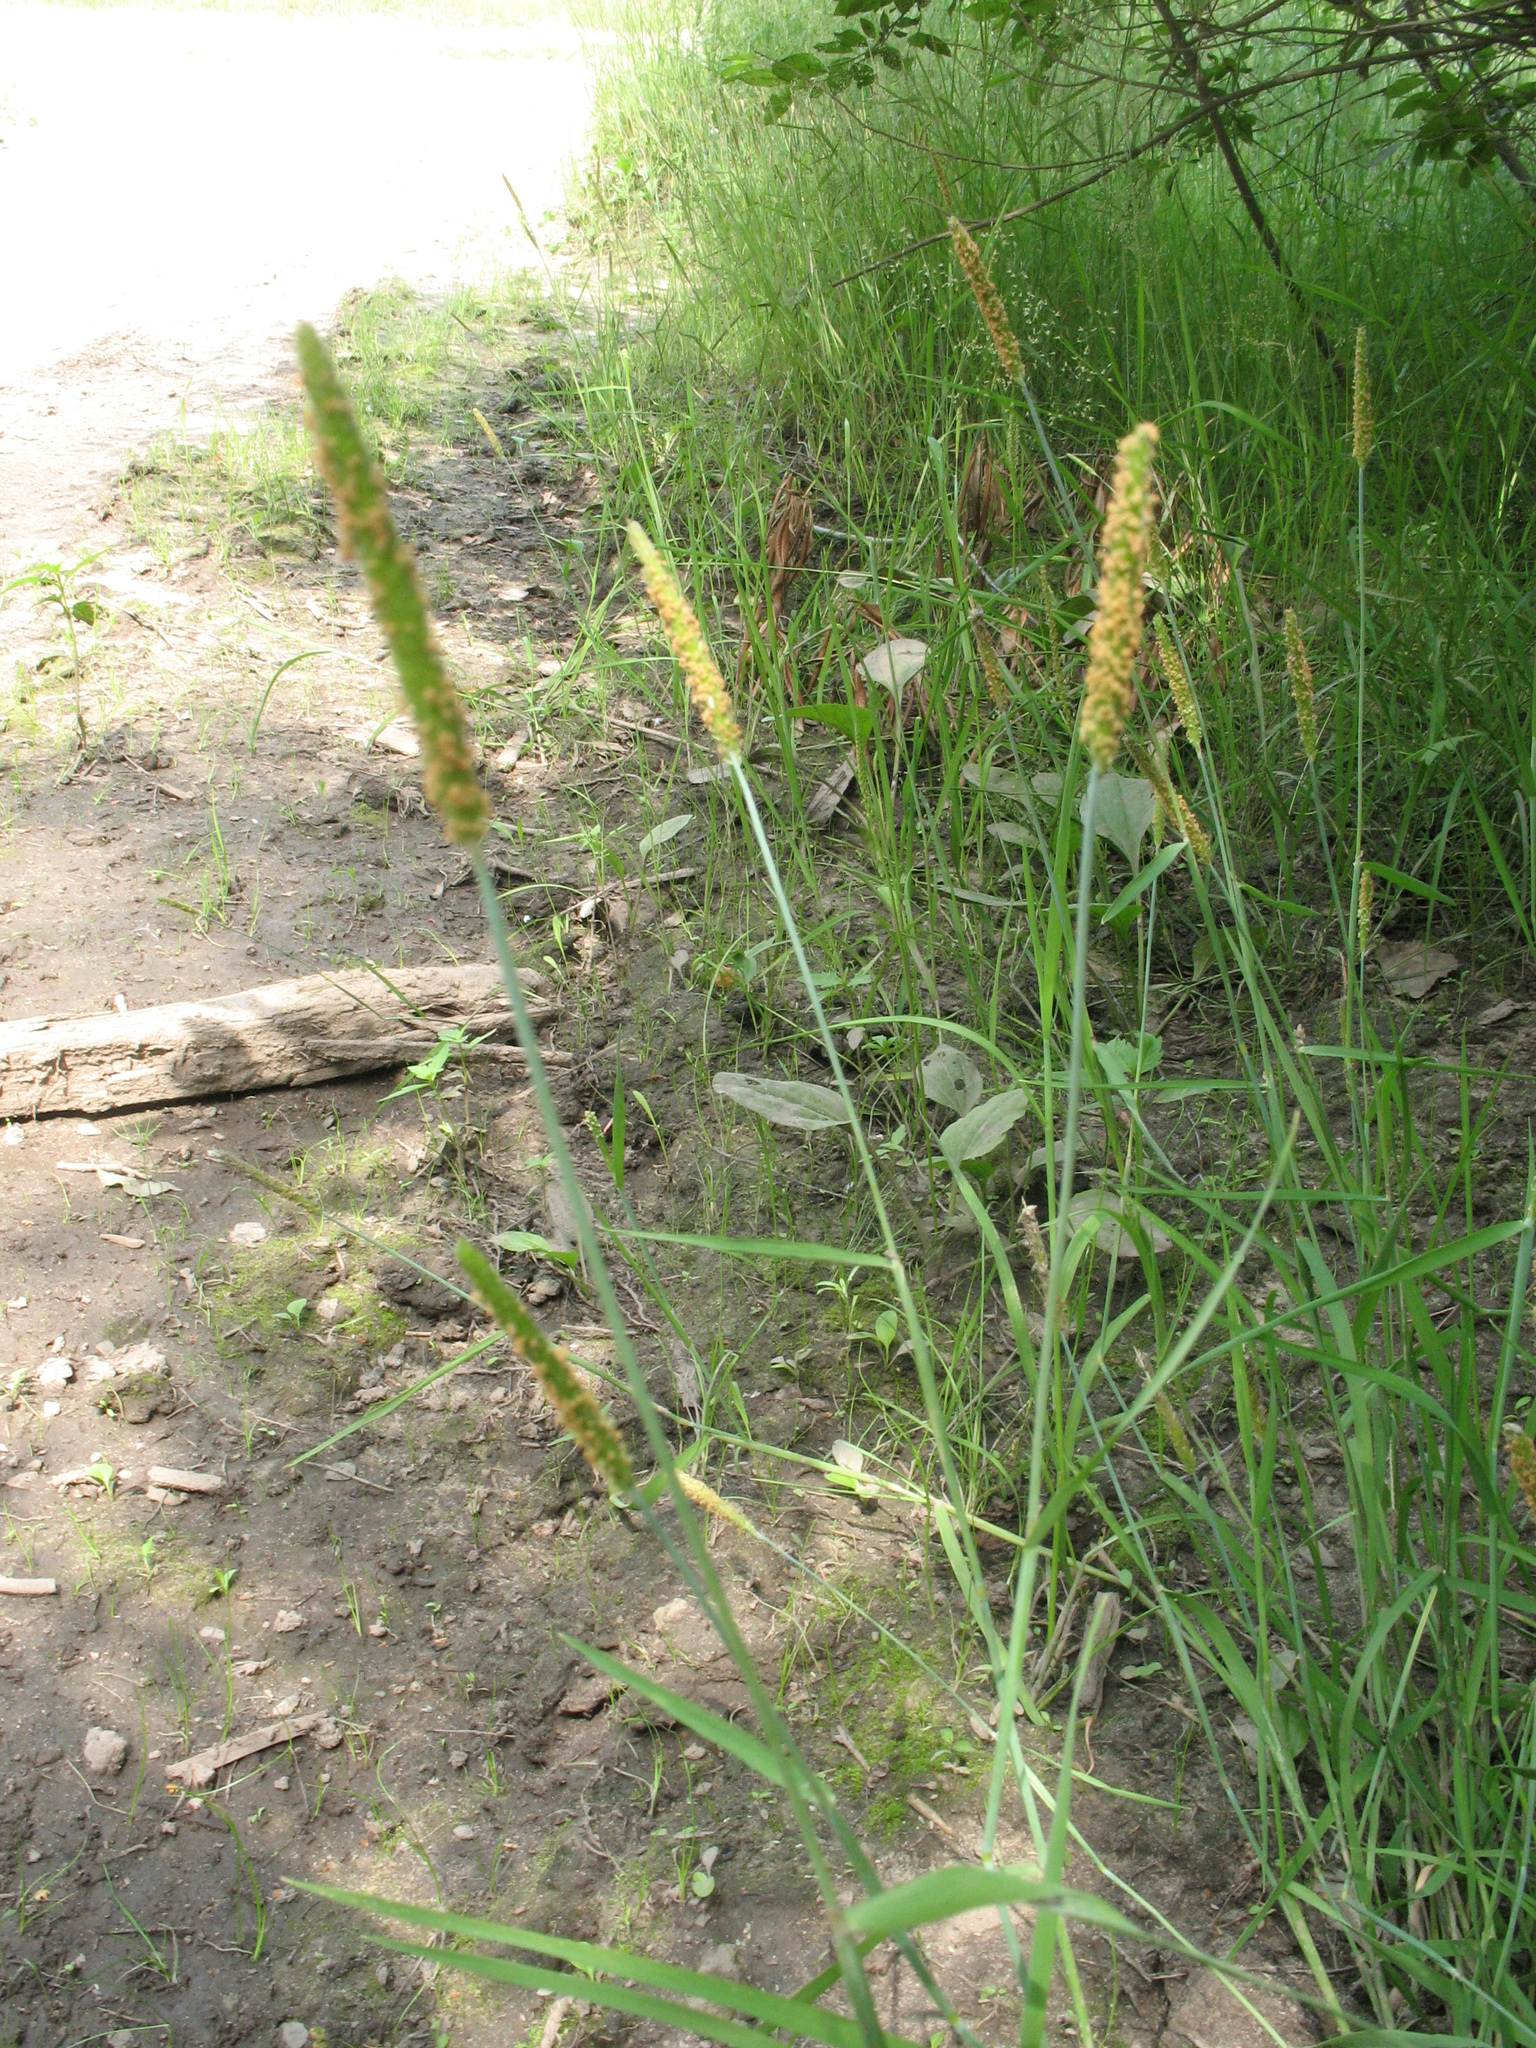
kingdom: Plantae
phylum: Tracheophyta
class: Liliopsida
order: Poales
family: Poaceae
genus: Alopecurus
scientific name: Alopecurus aequalis
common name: Orange foxtail
